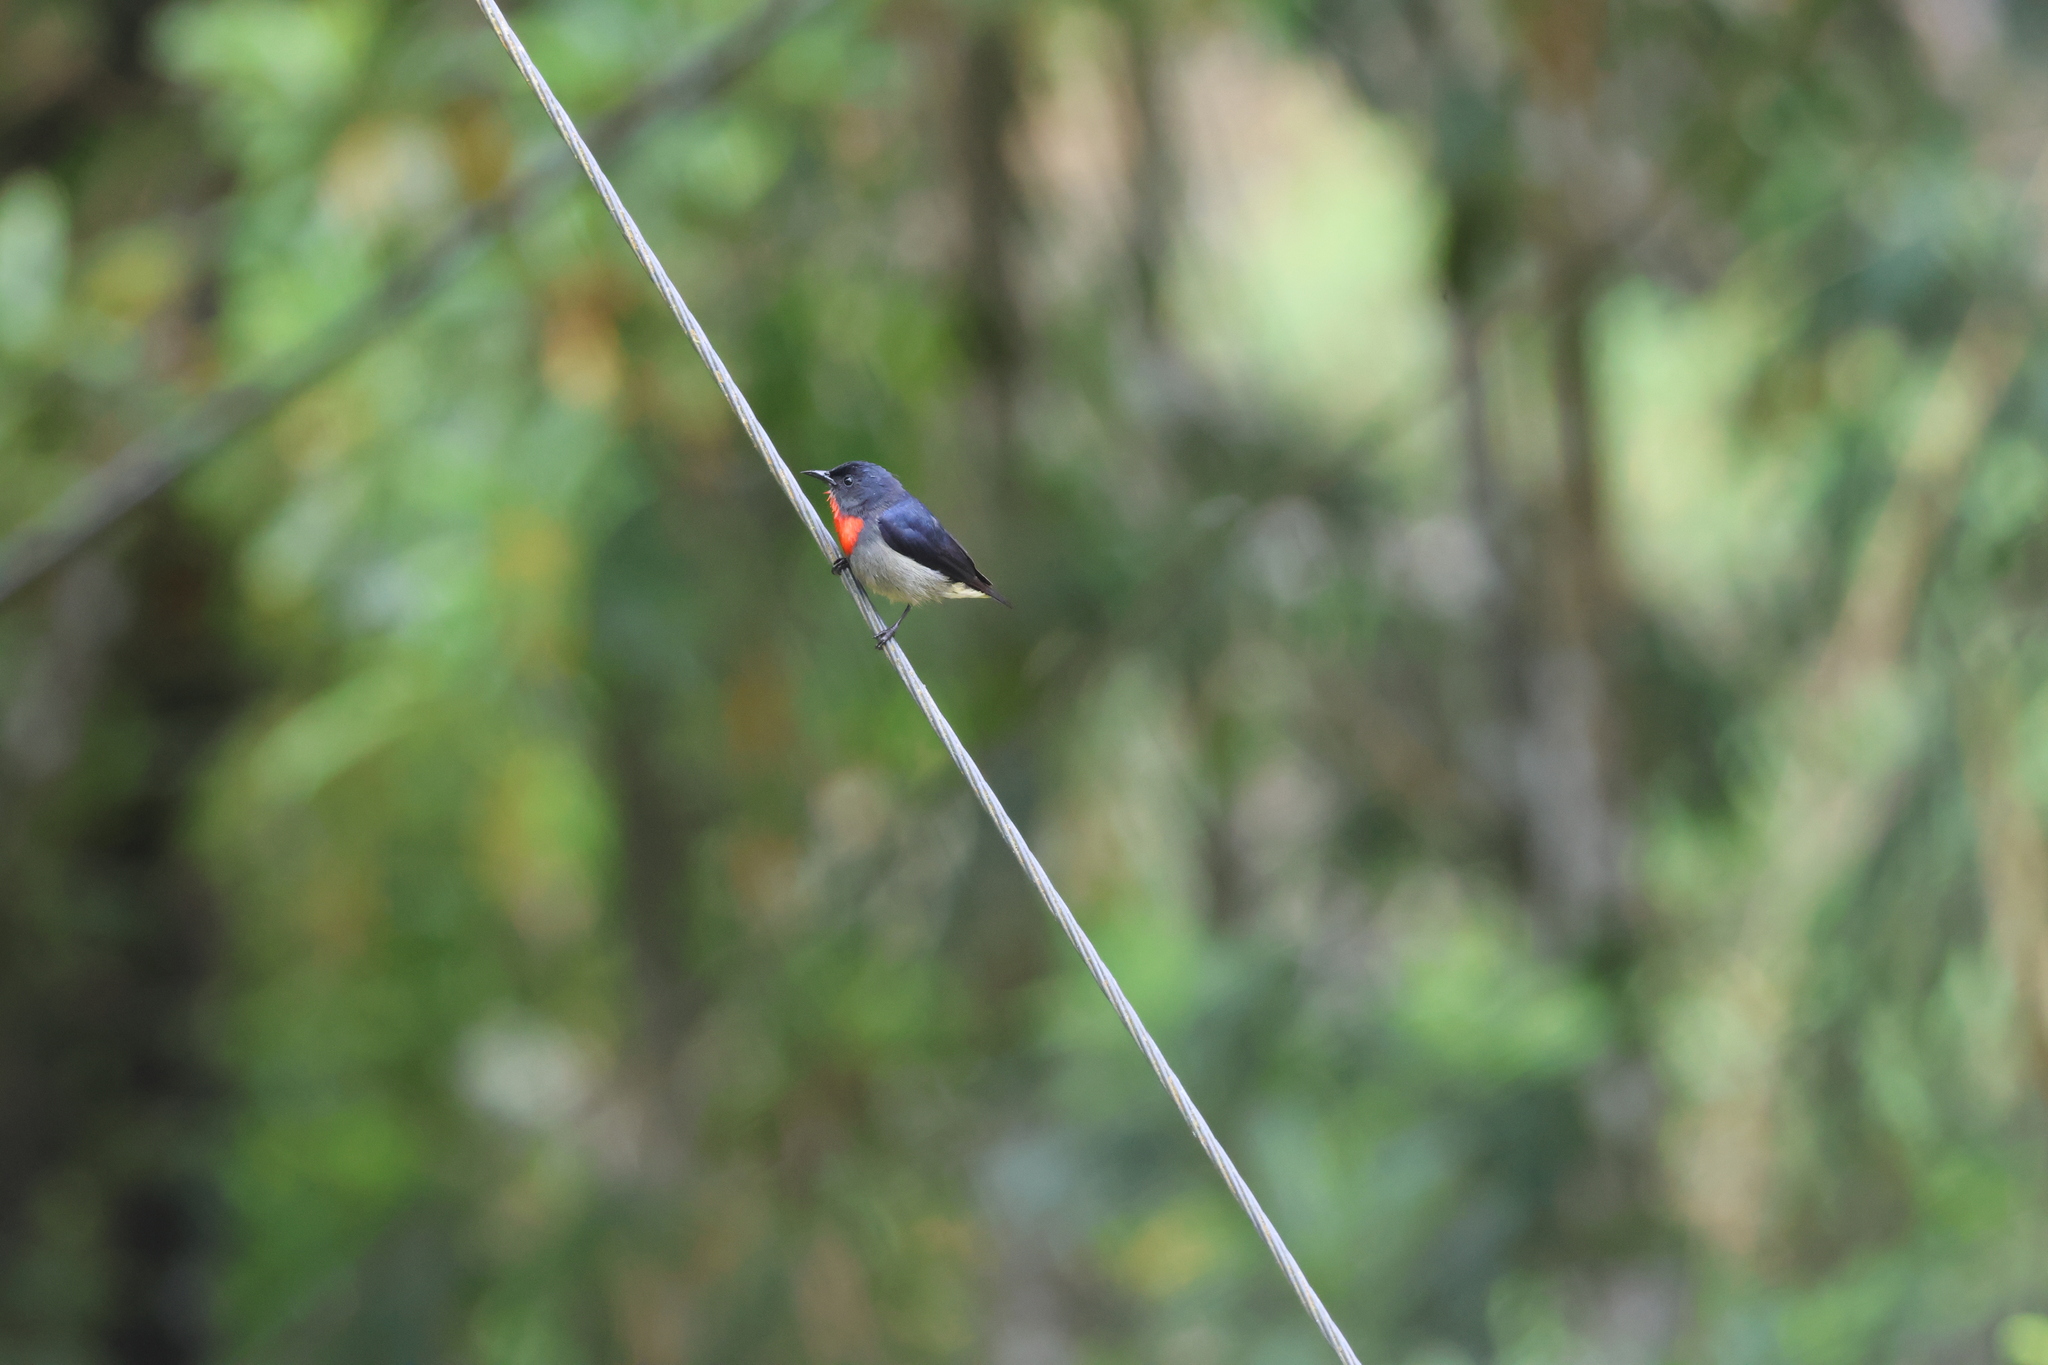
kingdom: Animalia
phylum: Chordata
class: Aves
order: Passeriformes
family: Dicaeidae
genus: Dicaeum
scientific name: Dicaeum monticolum
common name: Black-sided flowerpecker
